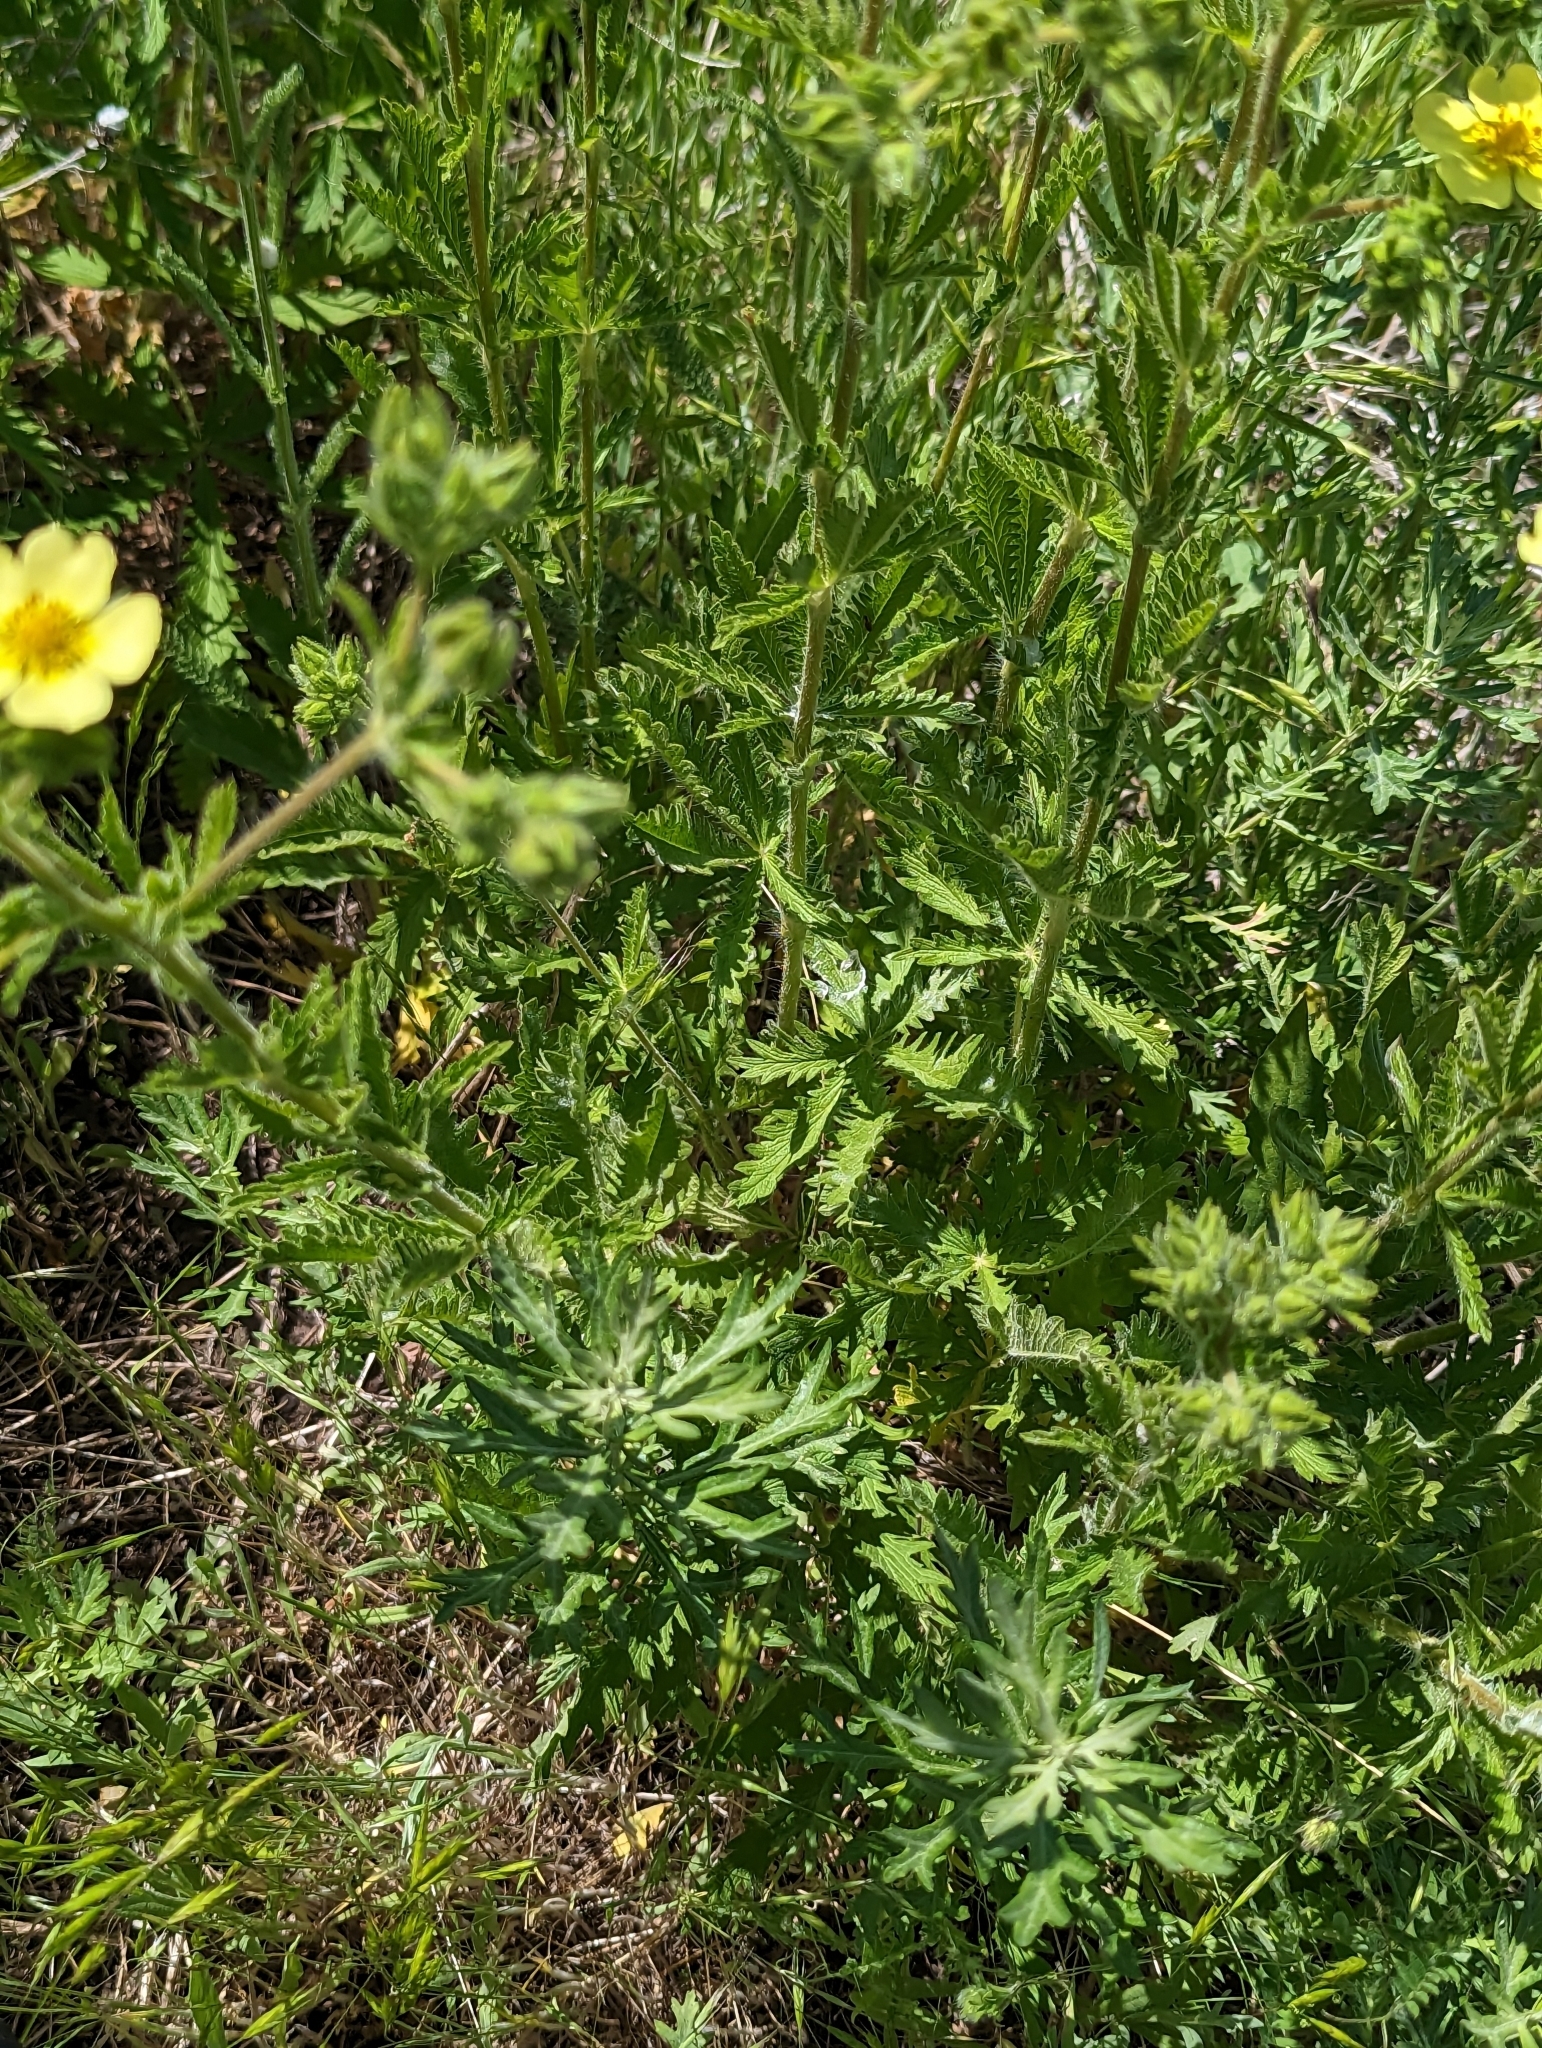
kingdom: Plantae
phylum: Tracheophyta
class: Magnoliopsida
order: Rosales
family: Rosaceae
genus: Potentilla
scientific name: Potentilla recta
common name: Sulphur cinquefoil
